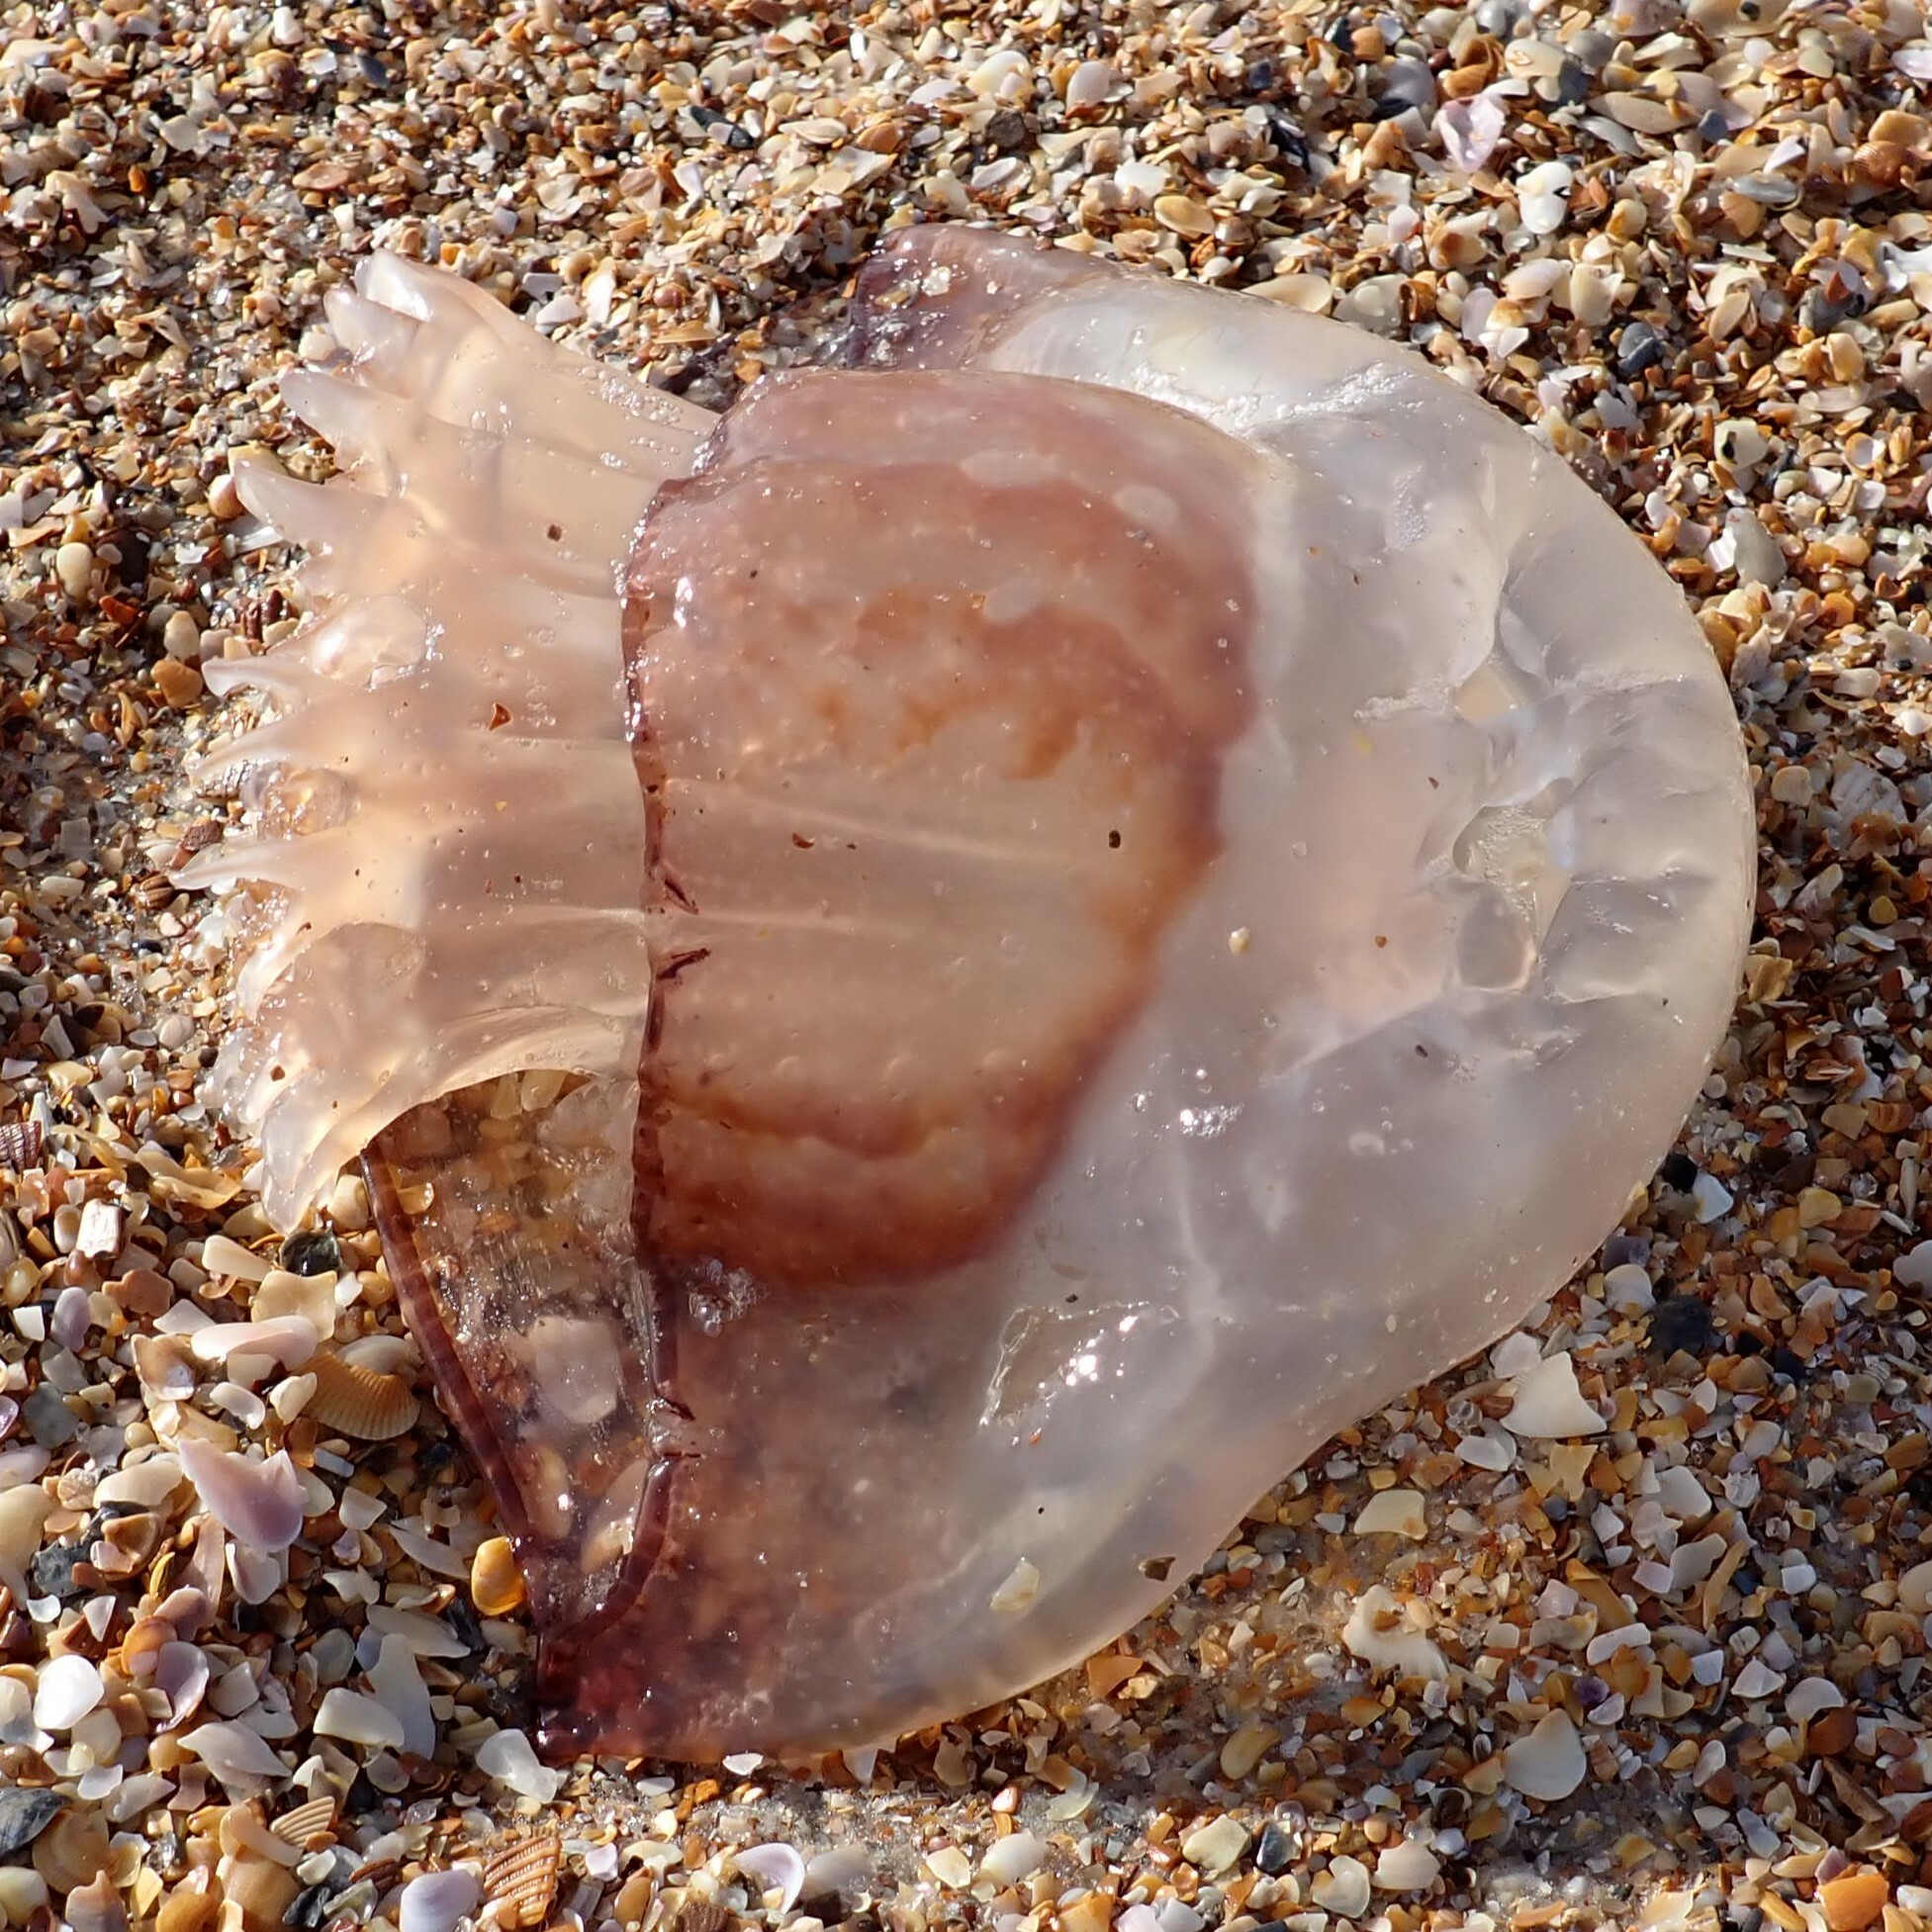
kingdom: Animalia
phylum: Cnidaria
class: Scyphozoa
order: Rhizostomeae
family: Stomolophidae
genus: Stomolophus
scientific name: Stomolophus meleagris
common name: Cabbagehead
